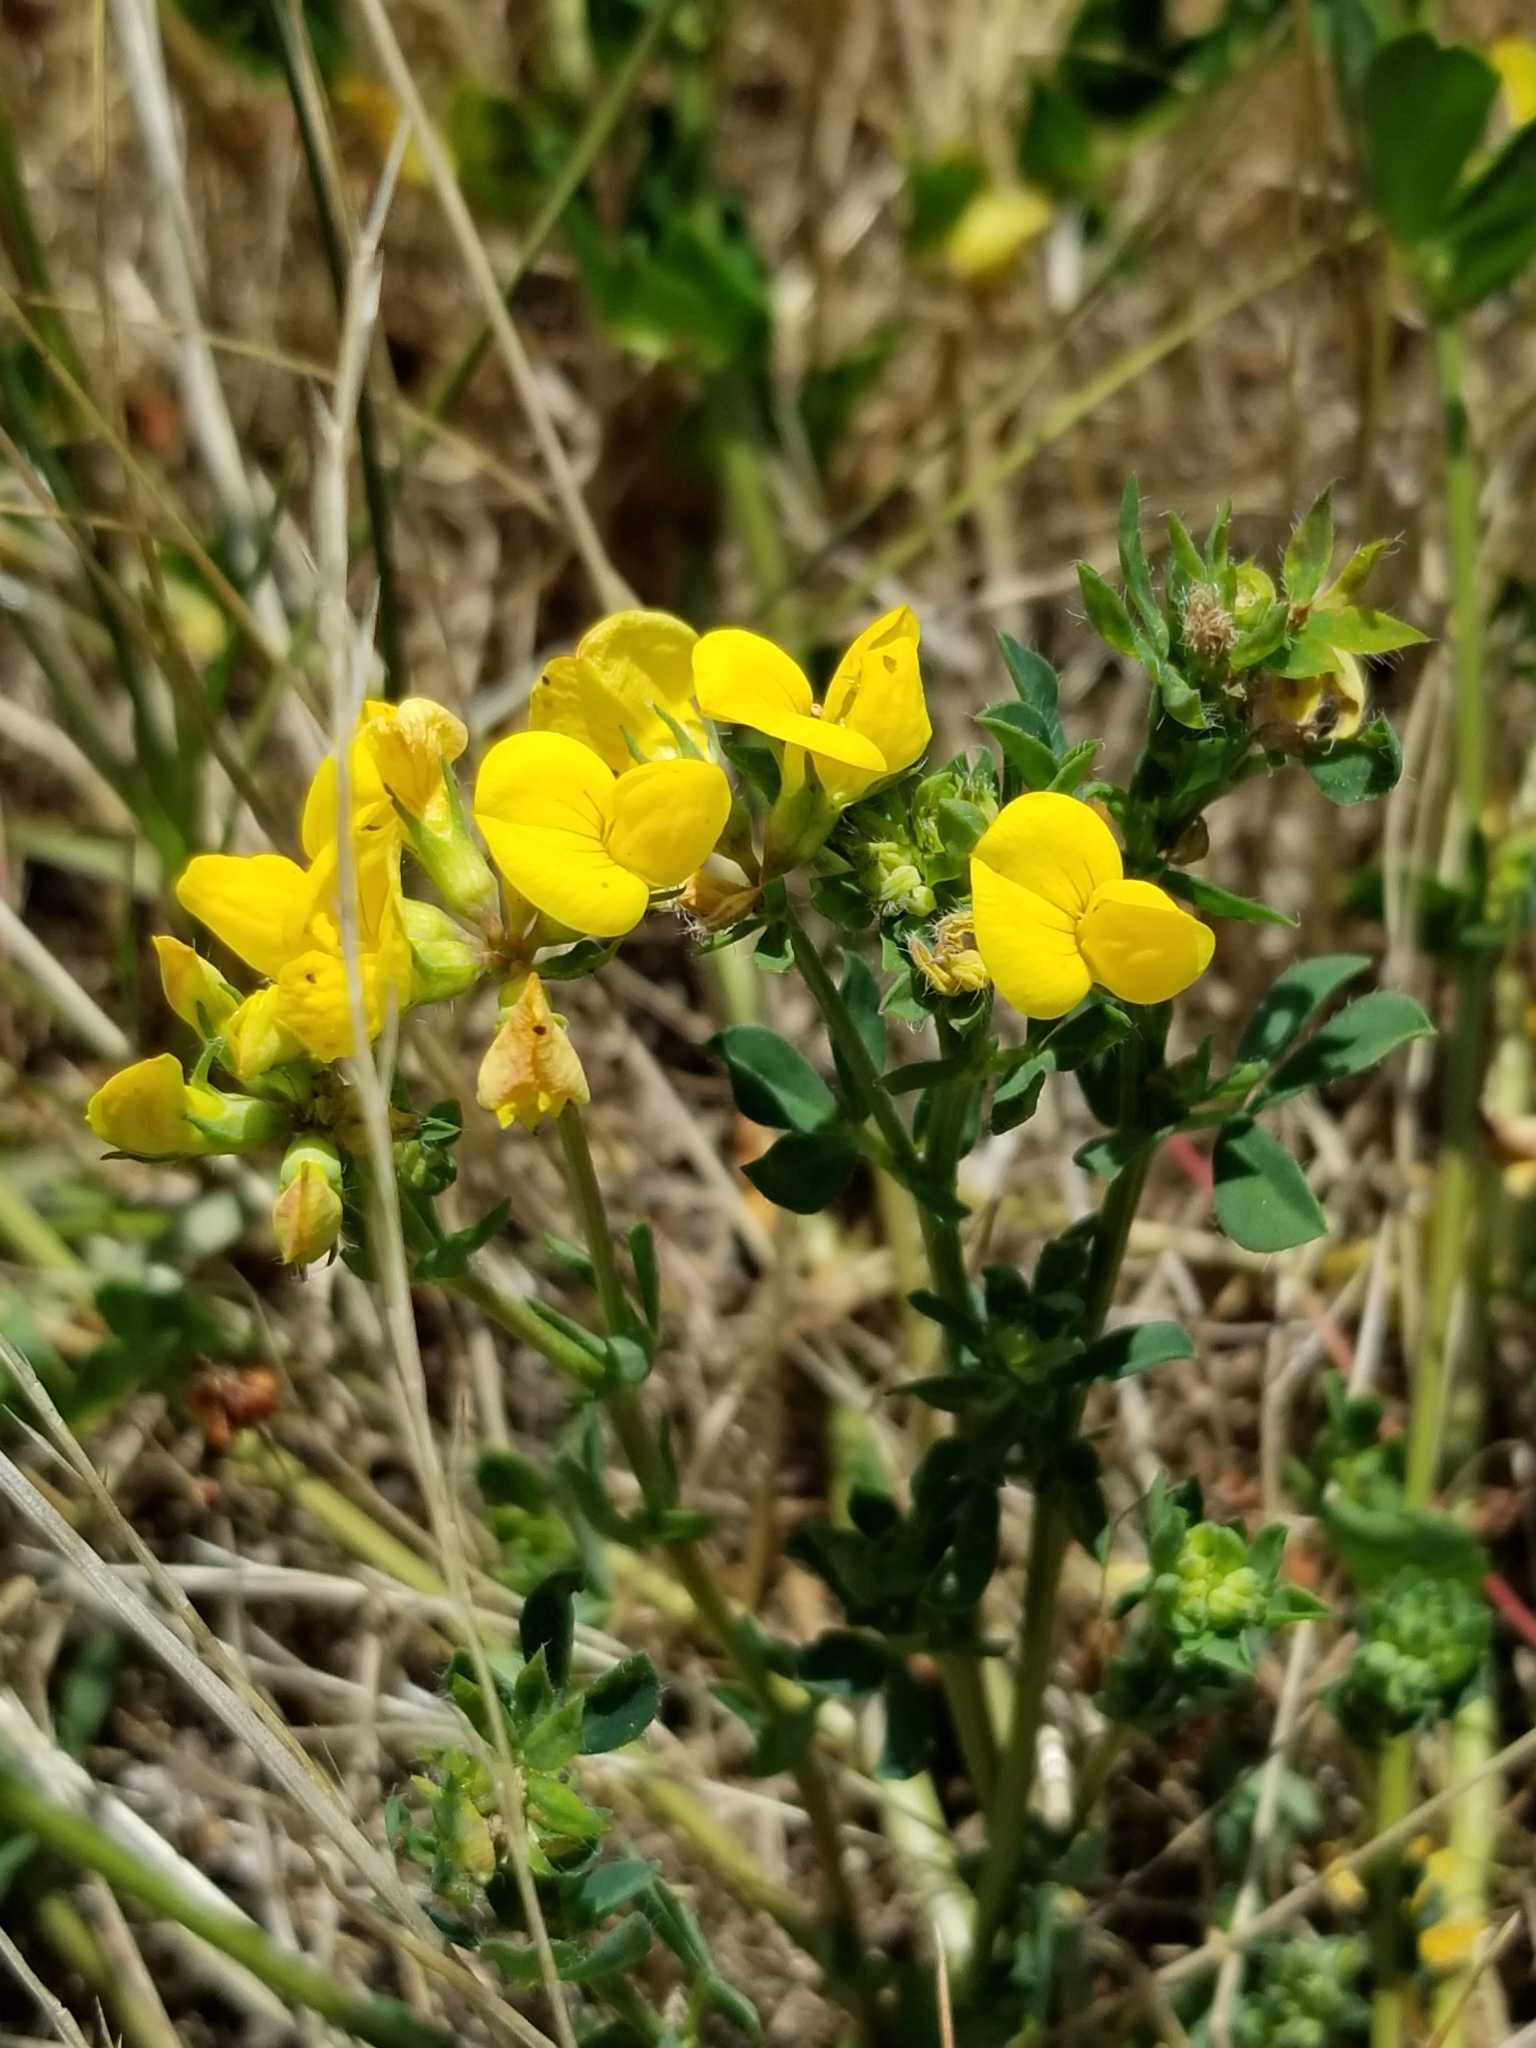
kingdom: Plantae
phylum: Tracheophyta
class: Magnoliopsida
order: Fabales
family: Fabaceae
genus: Lotus
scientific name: Lotus corniculatus
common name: Common bird's-foot-trefoil
